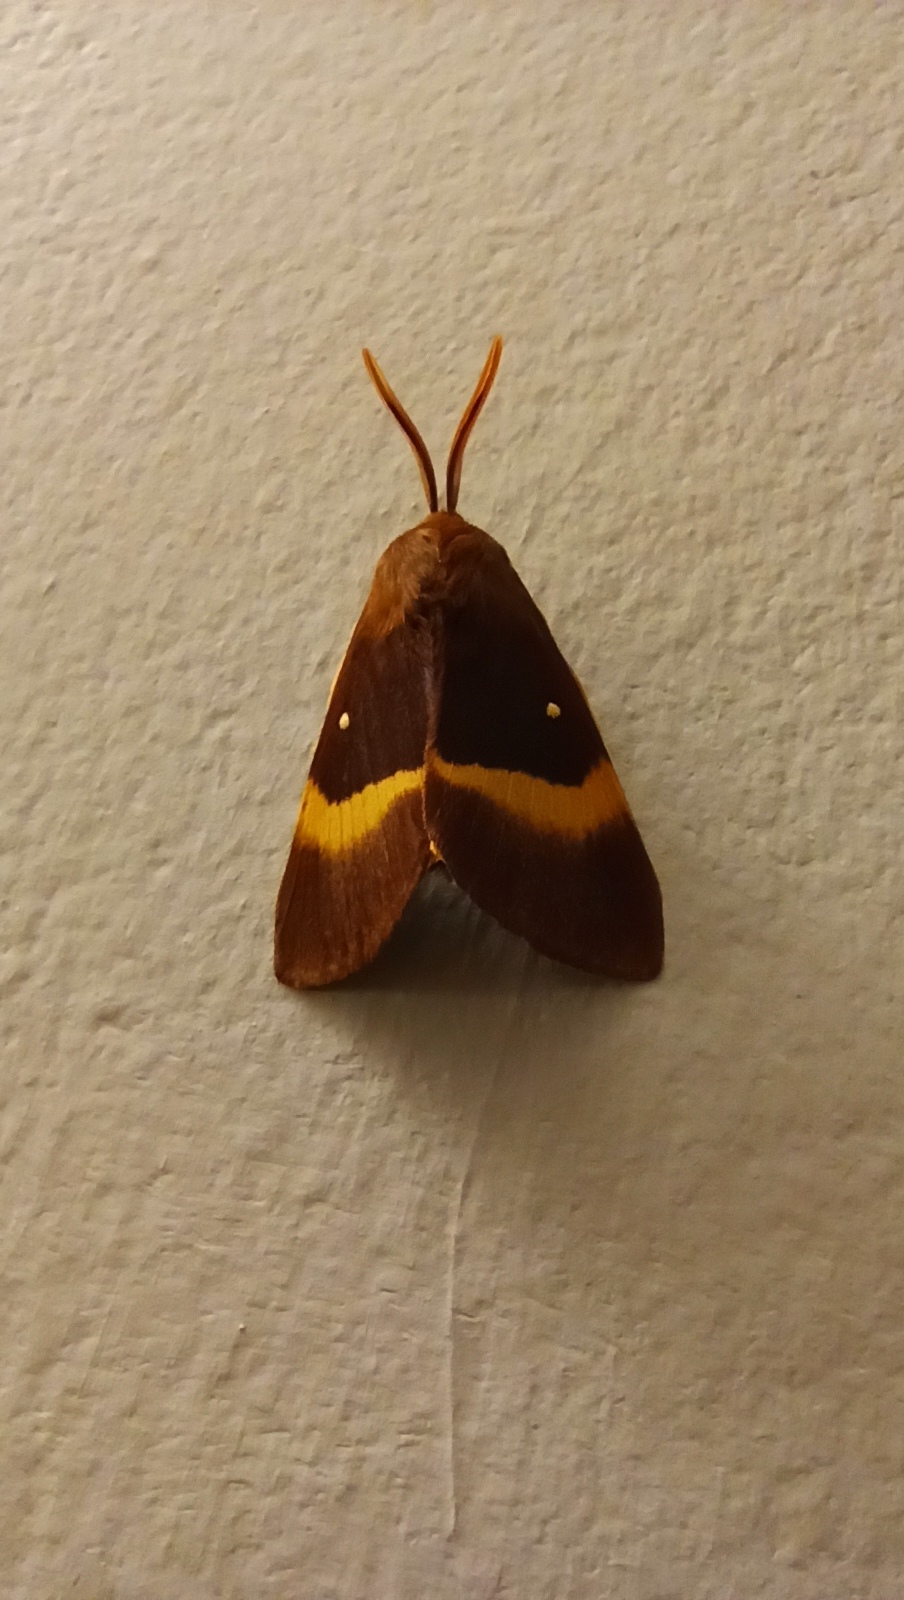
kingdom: Animalia
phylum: Arthropoda
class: Insecta
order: Lepidoptera
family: Lasiocampidae
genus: Lasiocampa
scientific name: Lasiocampa quercus
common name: Oak eggar
